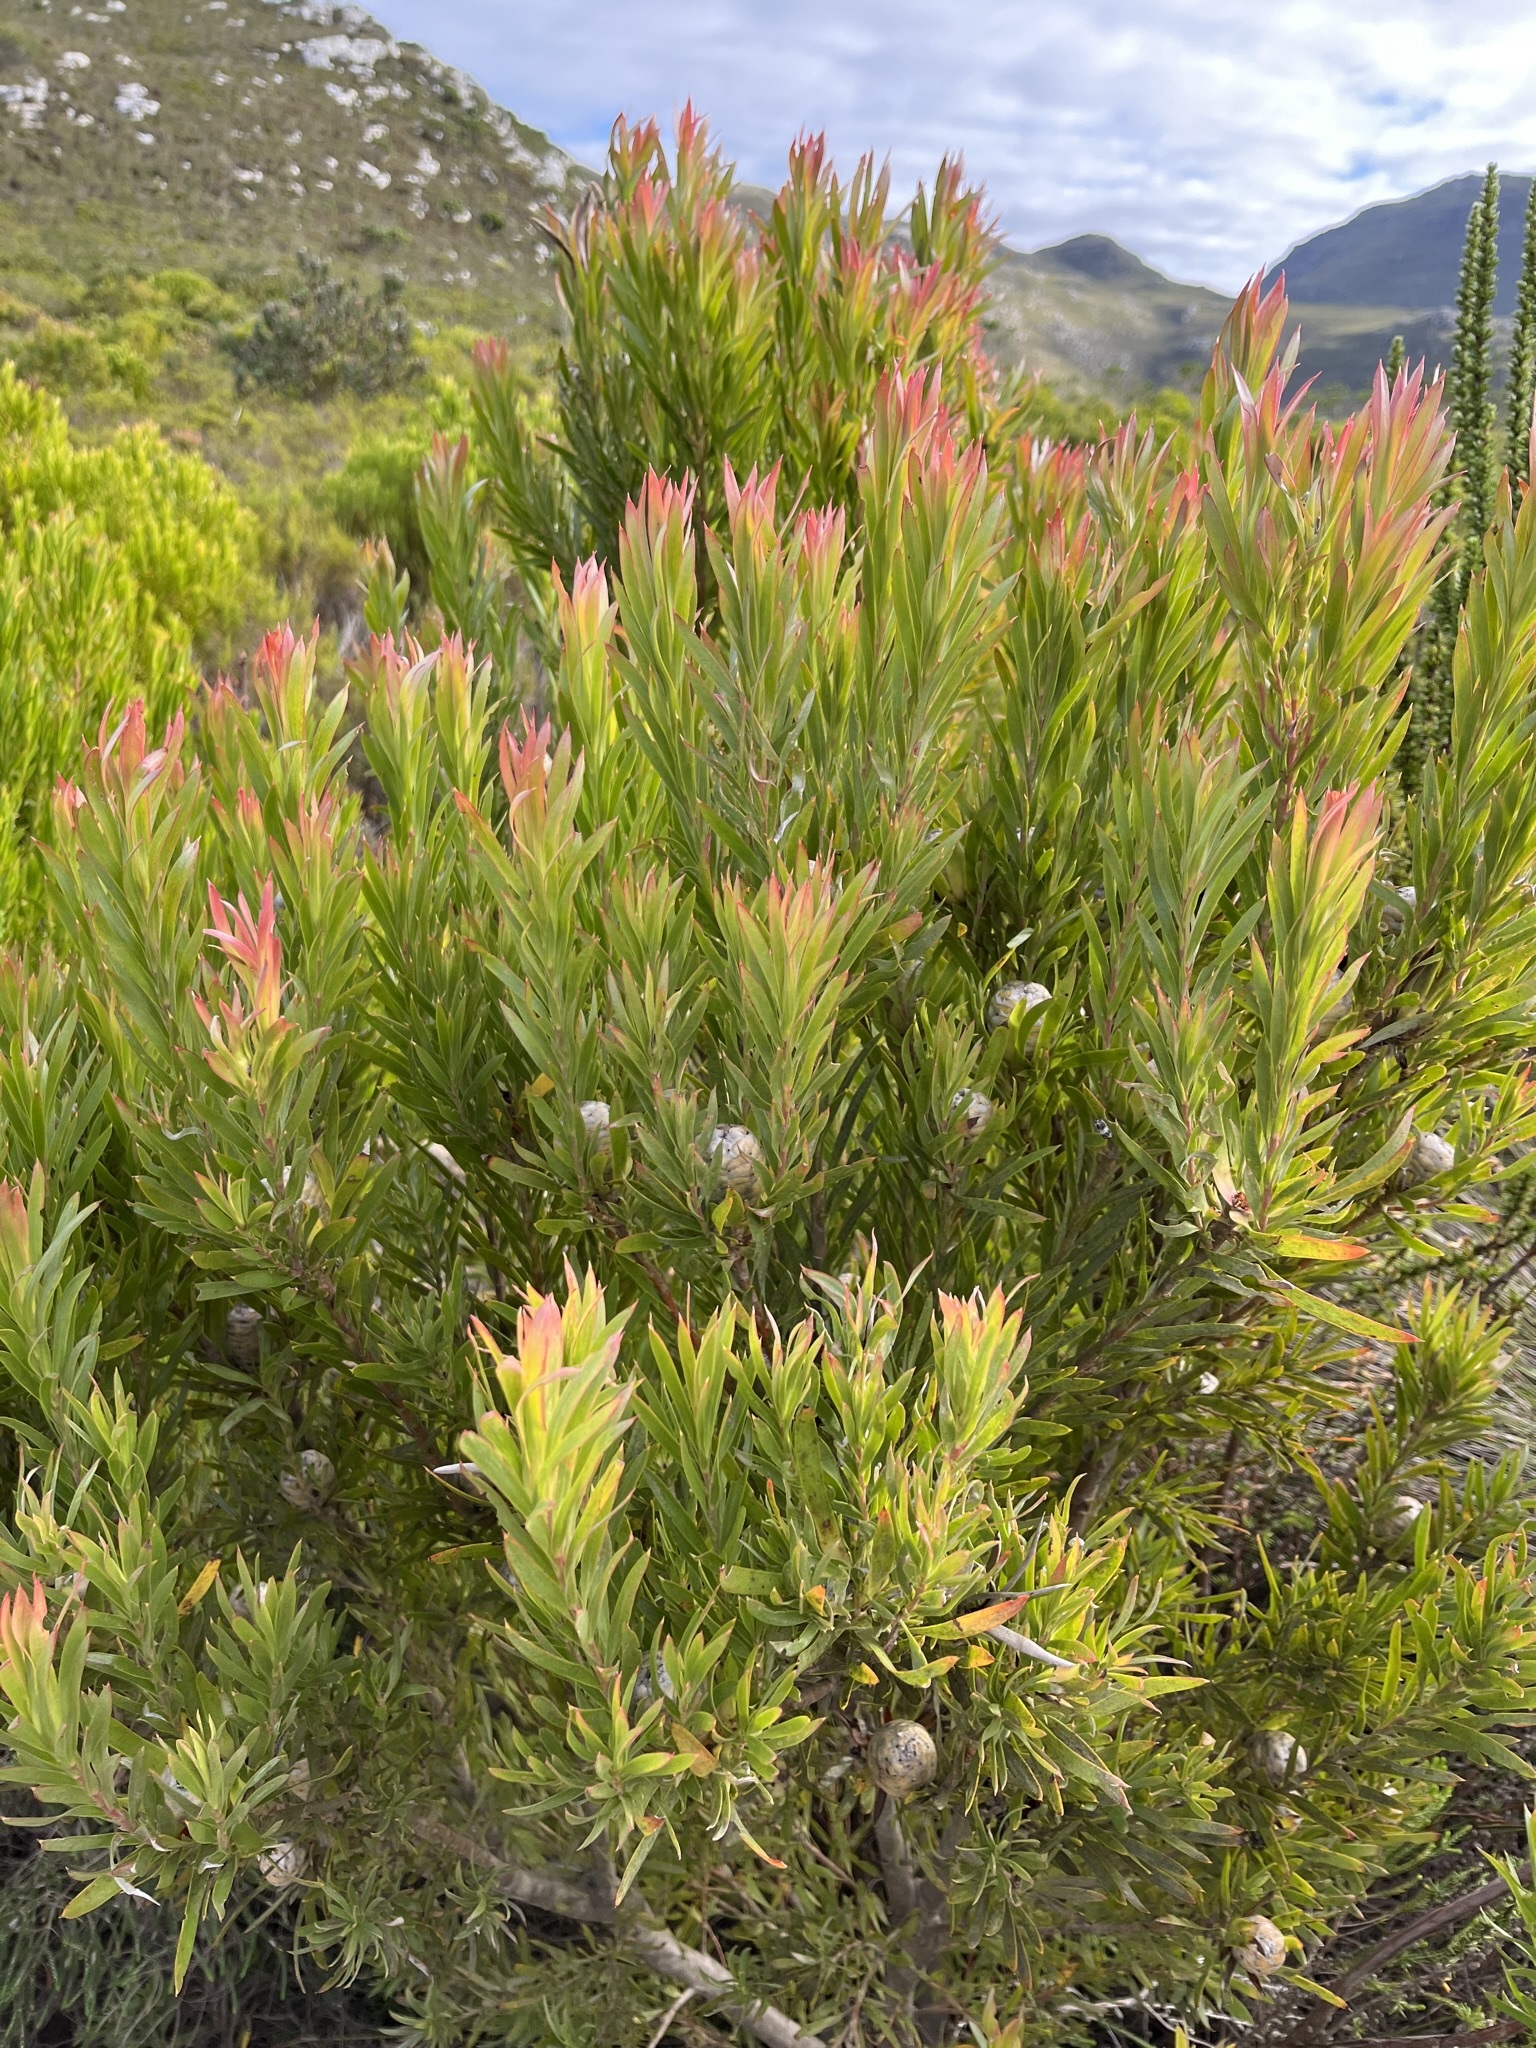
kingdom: Plantae
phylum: Tracheophyta
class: Magnoliopsida
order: Proteales
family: Proteaceae
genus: Leucadendron
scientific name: Leucadendron xanthoconus
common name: Sickle-leaf conebush
